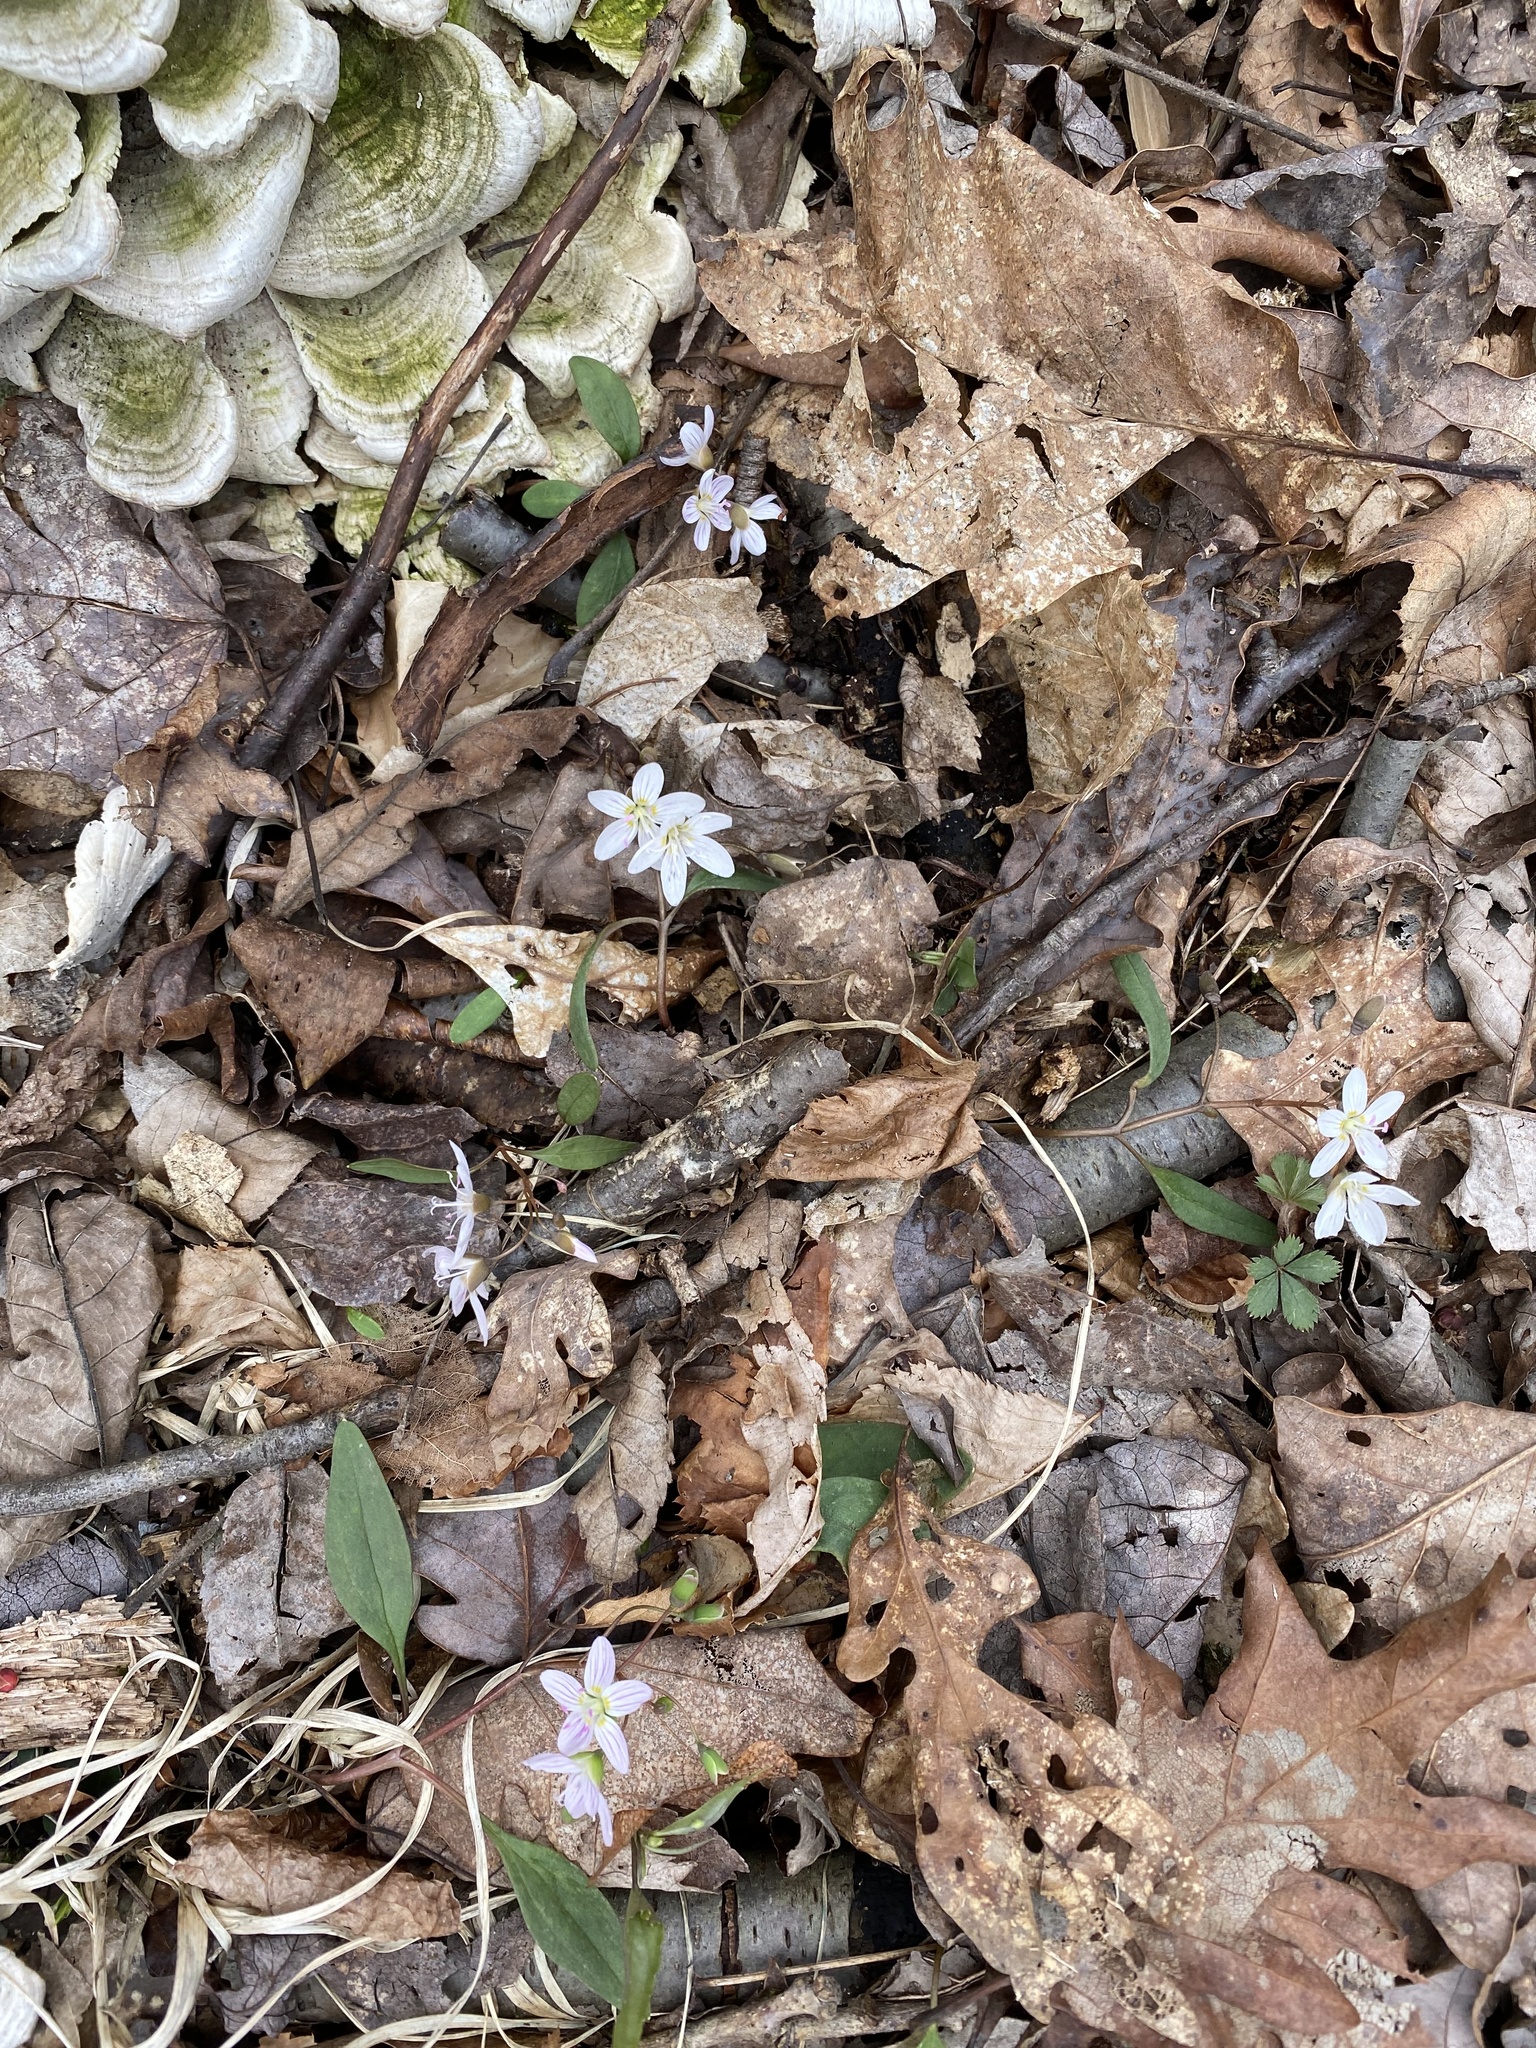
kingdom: Plantae
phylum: Tracheophyta
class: Magnoliopsida
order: Caryophyllales
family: Montiaceae
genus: Claytonia
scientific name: Claytonia caroliniana
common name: Carolina spring beauty
